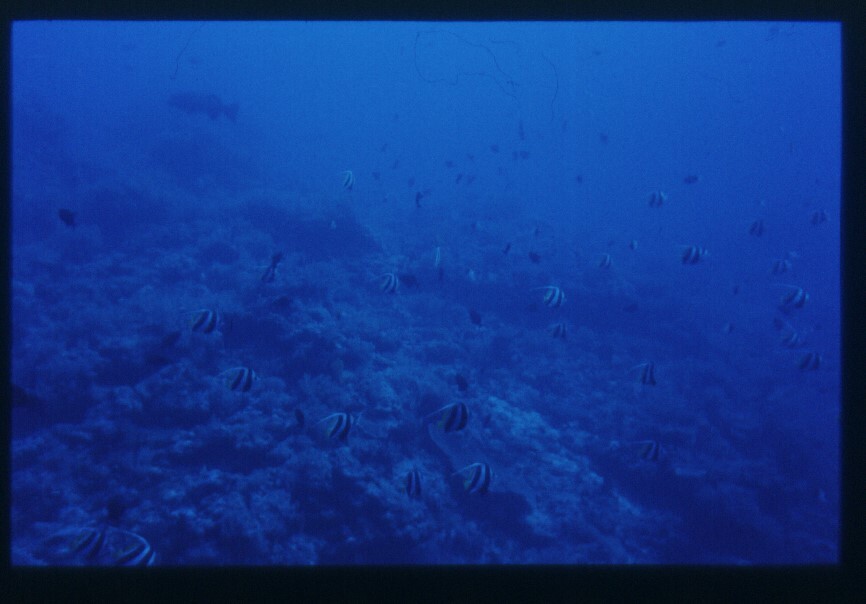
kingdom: Animalia
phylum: Chordata
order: Perciformes
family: Chaetodontidae
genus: Heniochus
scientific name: Heniochus diphreutes
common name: Pennantfish
